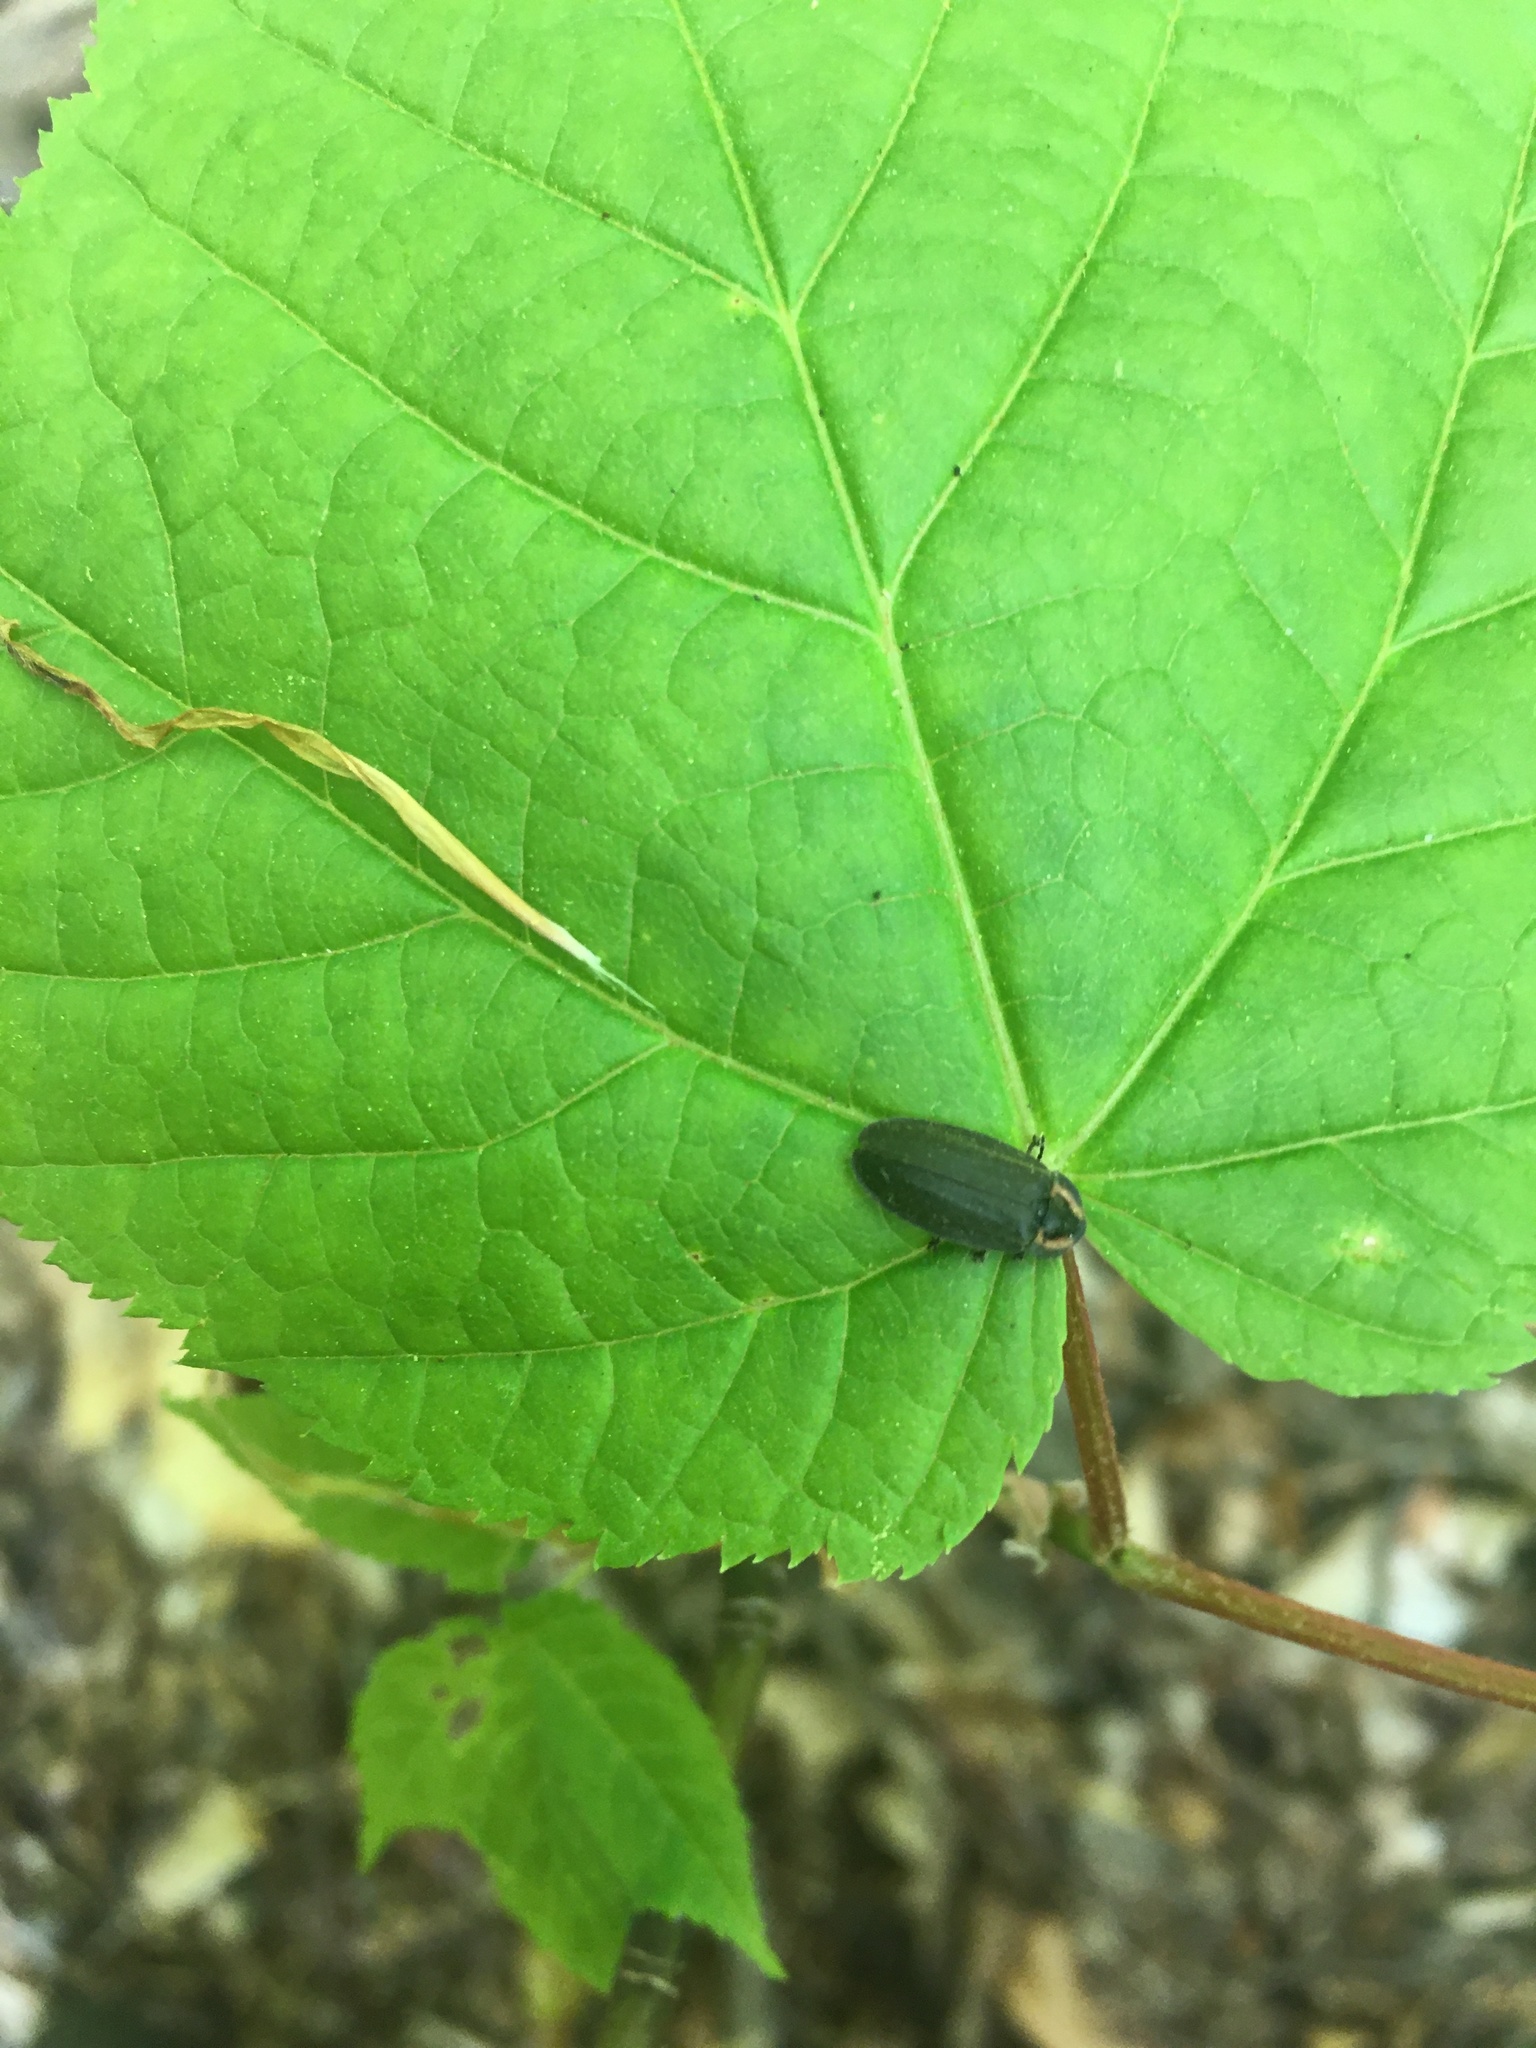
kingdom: Animalia
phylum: Arthropoda
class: Insecta
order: Coleoptera
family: Lampyridae
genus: Photinus
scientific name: Photinus corrusca
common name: Winter firefly
